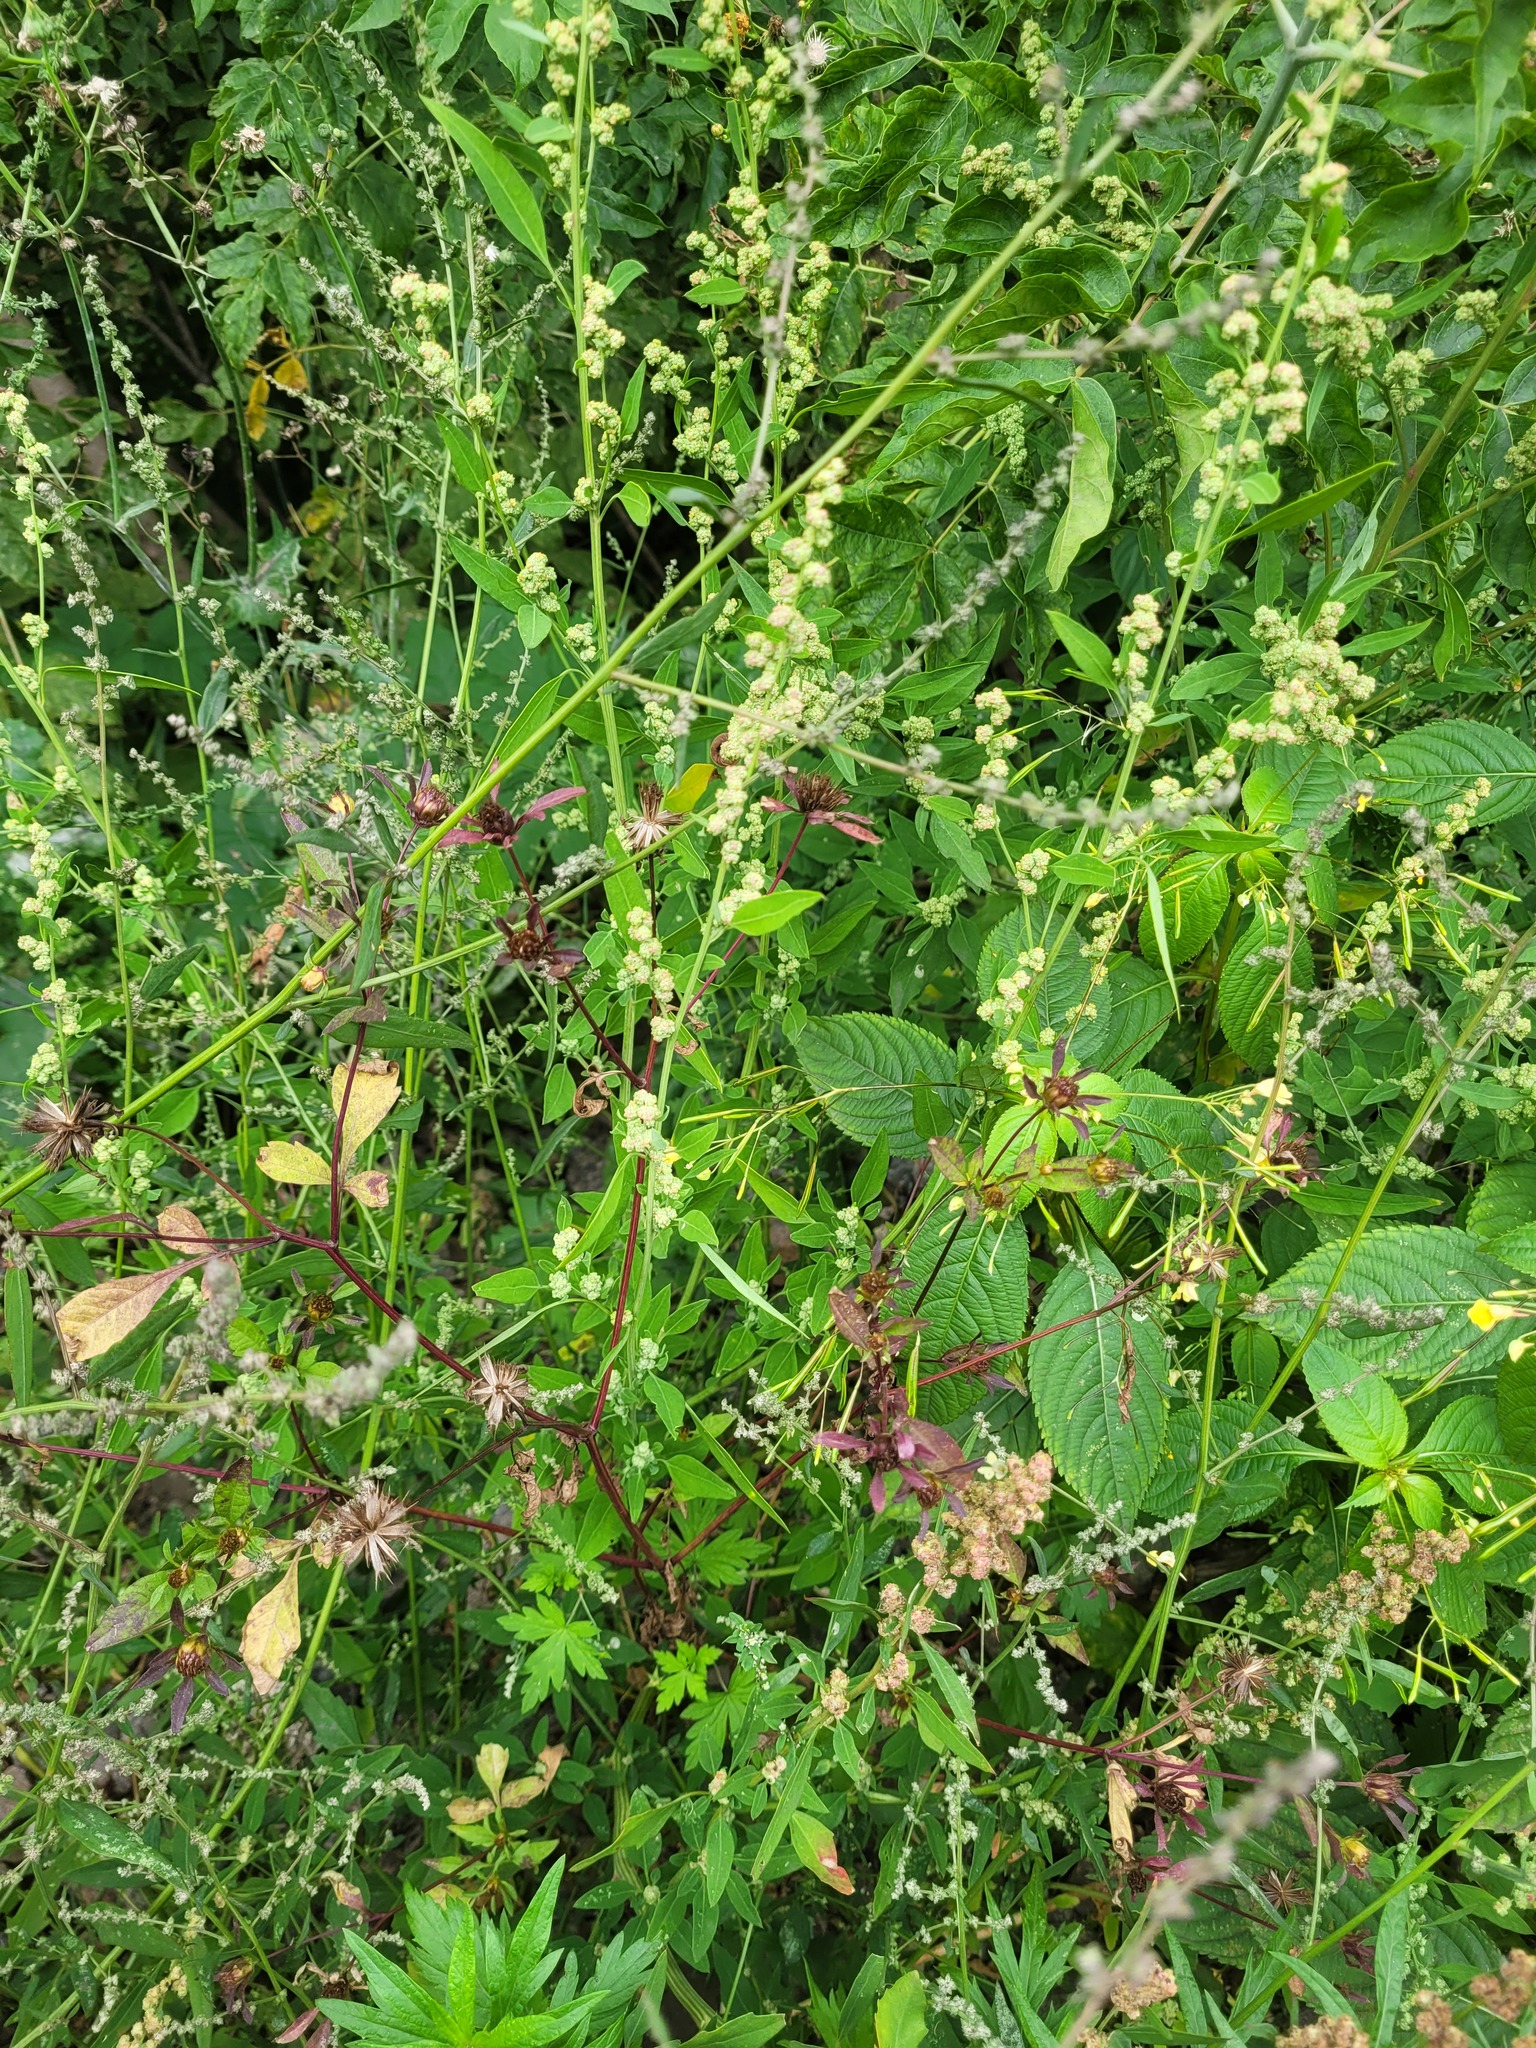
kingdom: Plantae
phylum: Tracheophyta
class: Magnoliopsida
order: Asterales
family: Asteraceae
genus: Bidens
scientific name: Bidens frondosa
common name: Beggarticks
